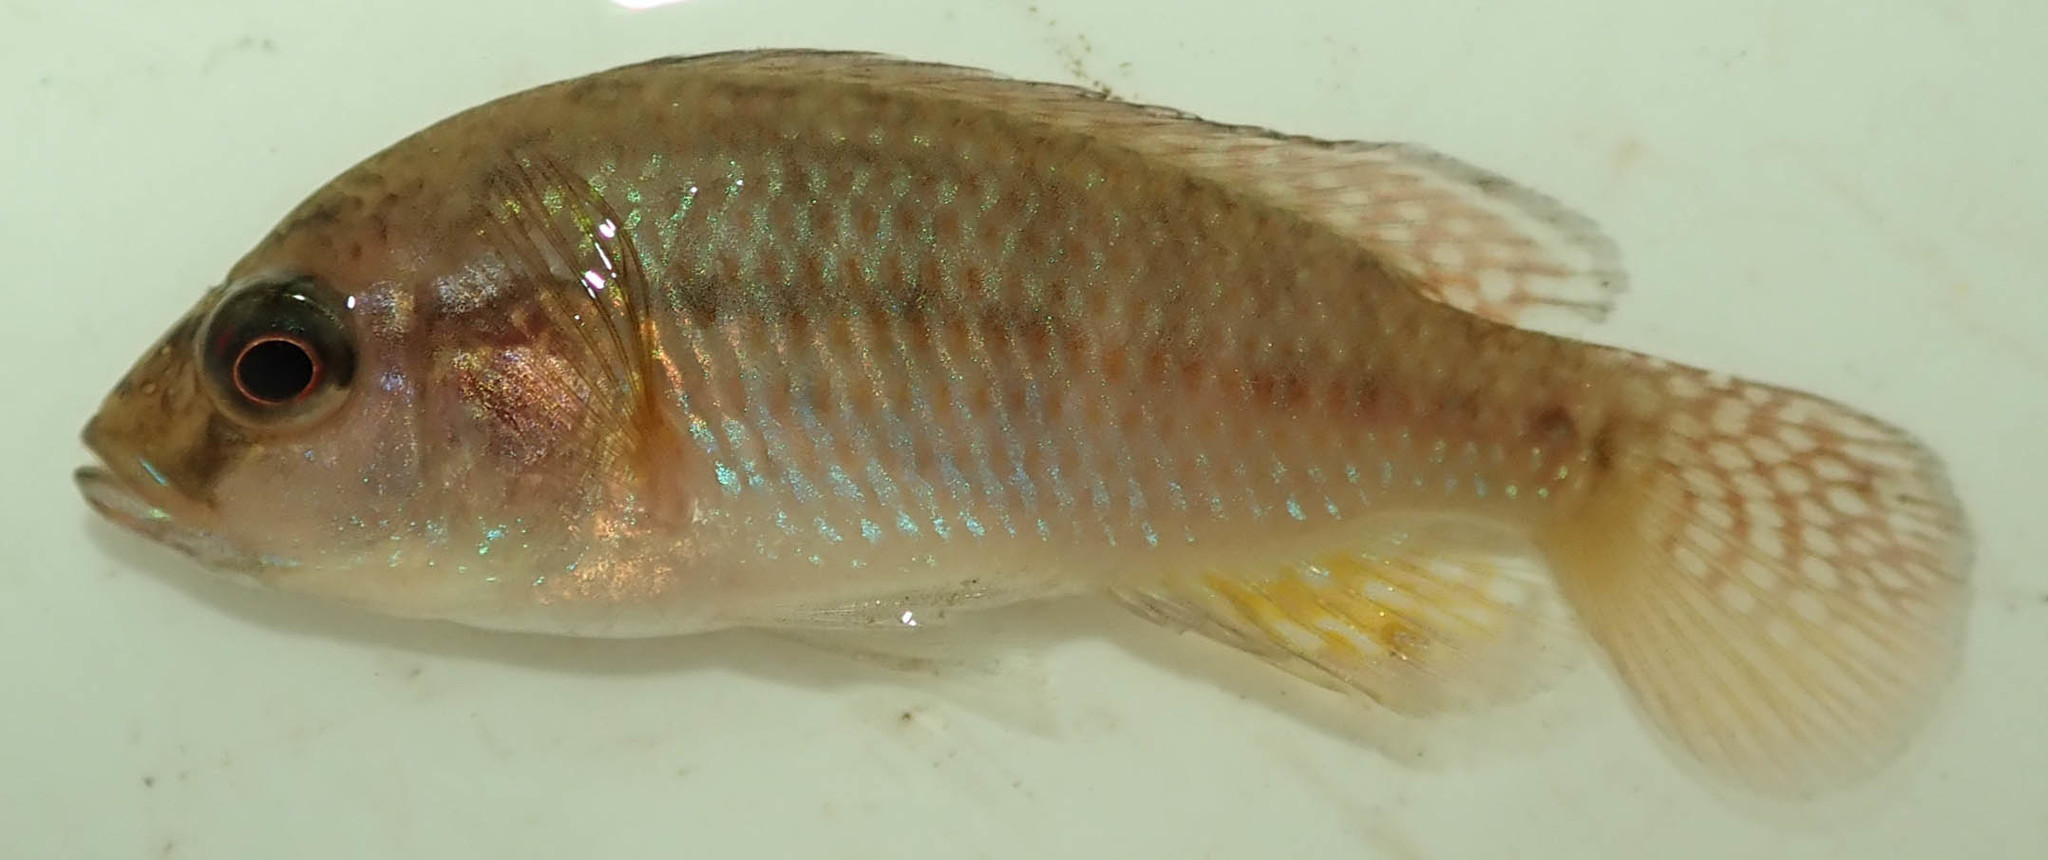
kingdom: Animalia
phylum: Chordata
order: Perciformes
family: Cichlidae
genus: Pseudocrenilabrus
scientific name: Pseudocrenilabrus philander
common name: Southern mouthbrooder
